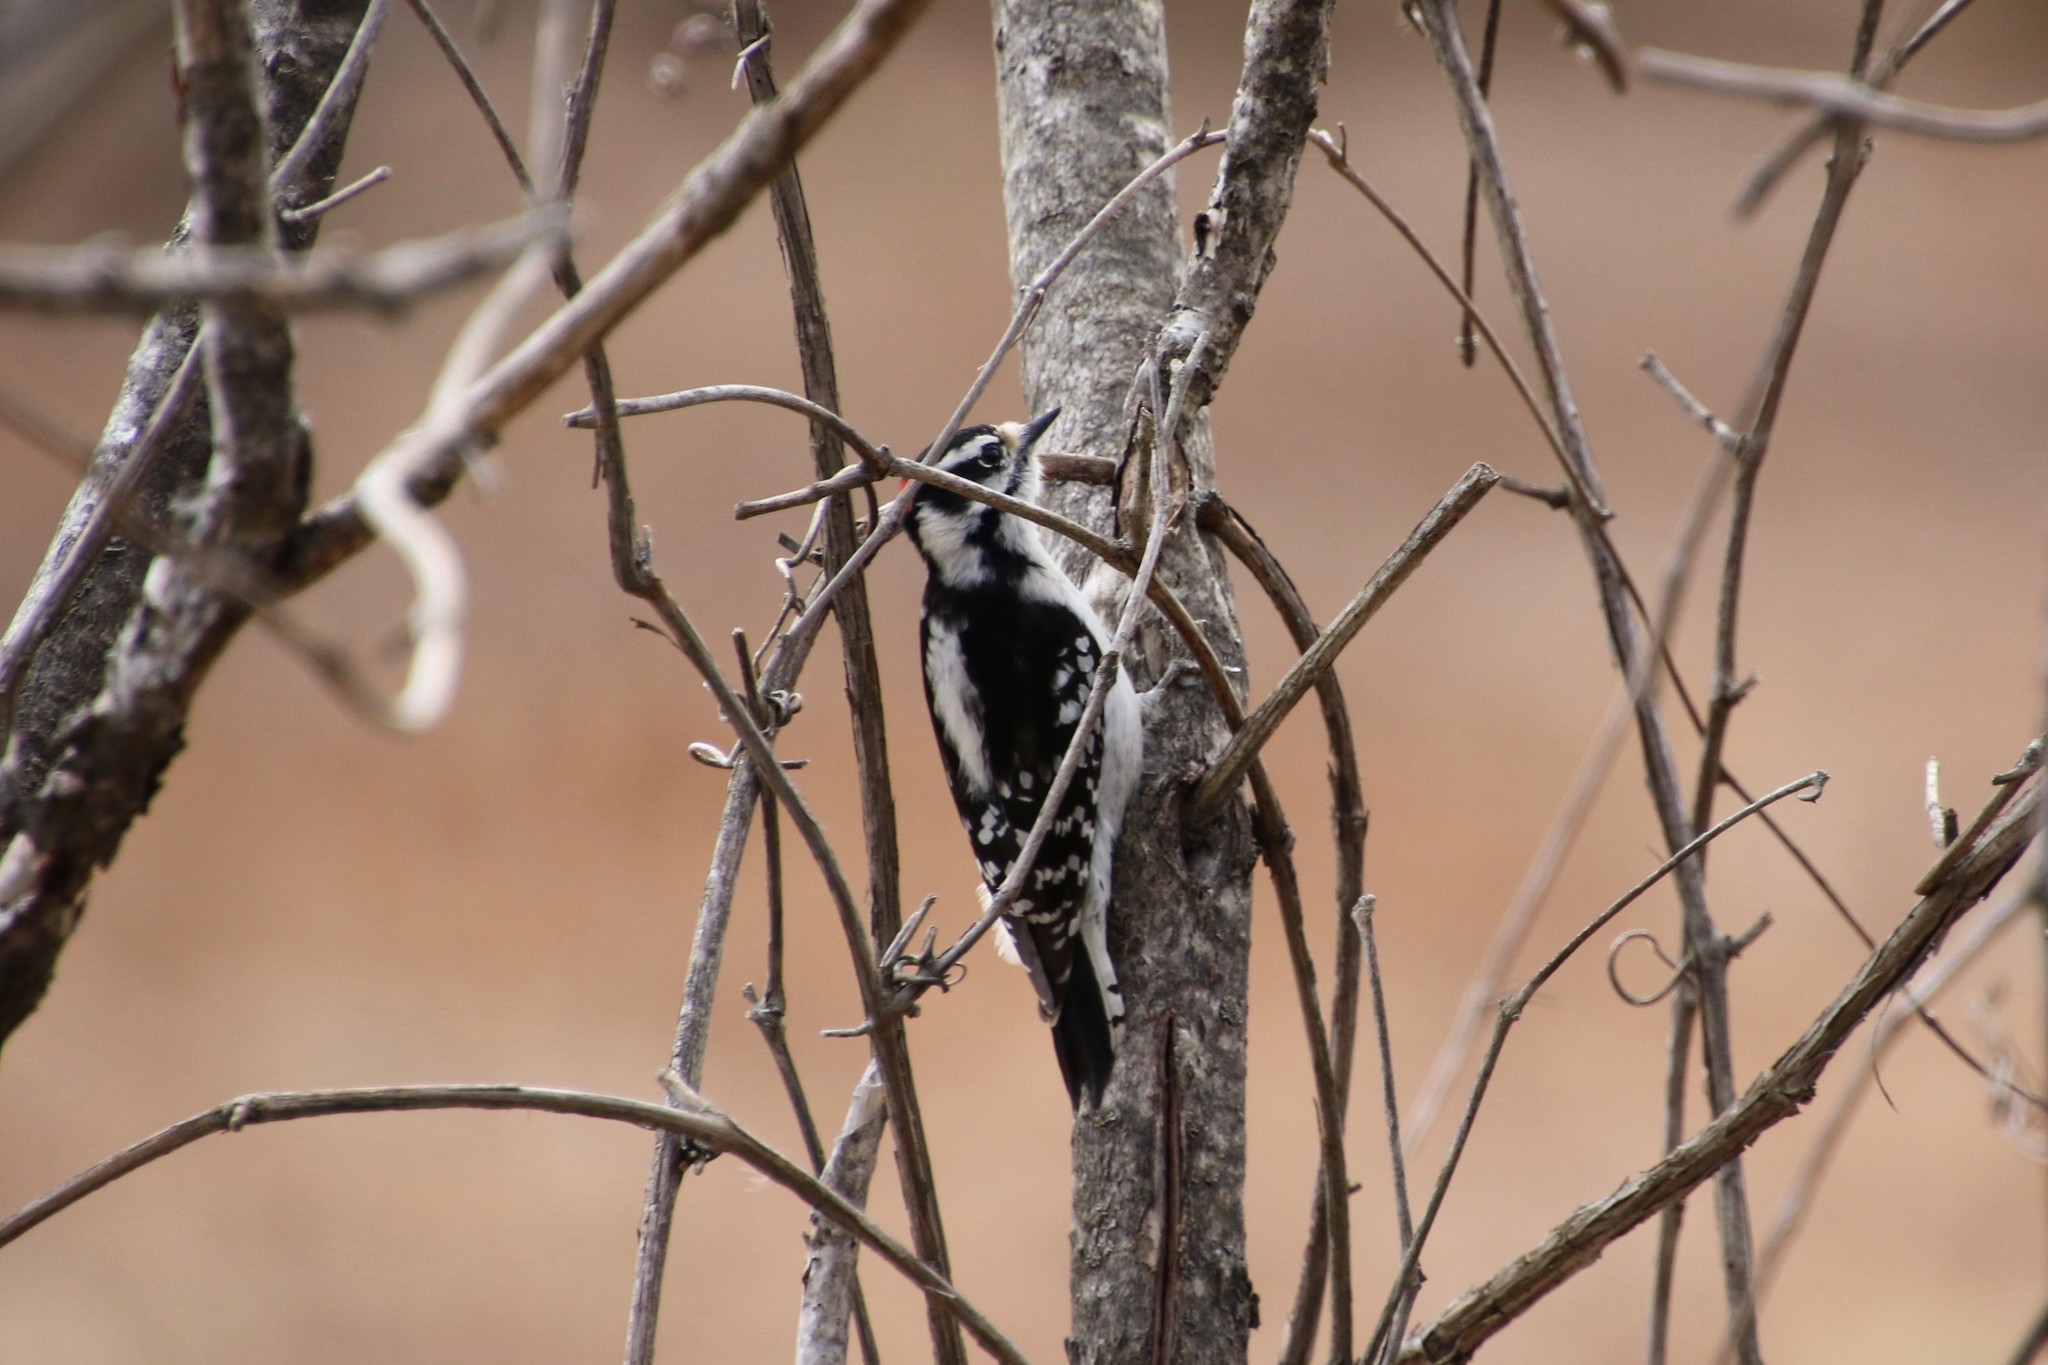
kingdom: Animalia
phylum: Chordata
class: Aves
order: Piciformes
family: Picidae
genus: Dryobates
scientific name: Dryobates pubescens
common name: Downy woodpecker
